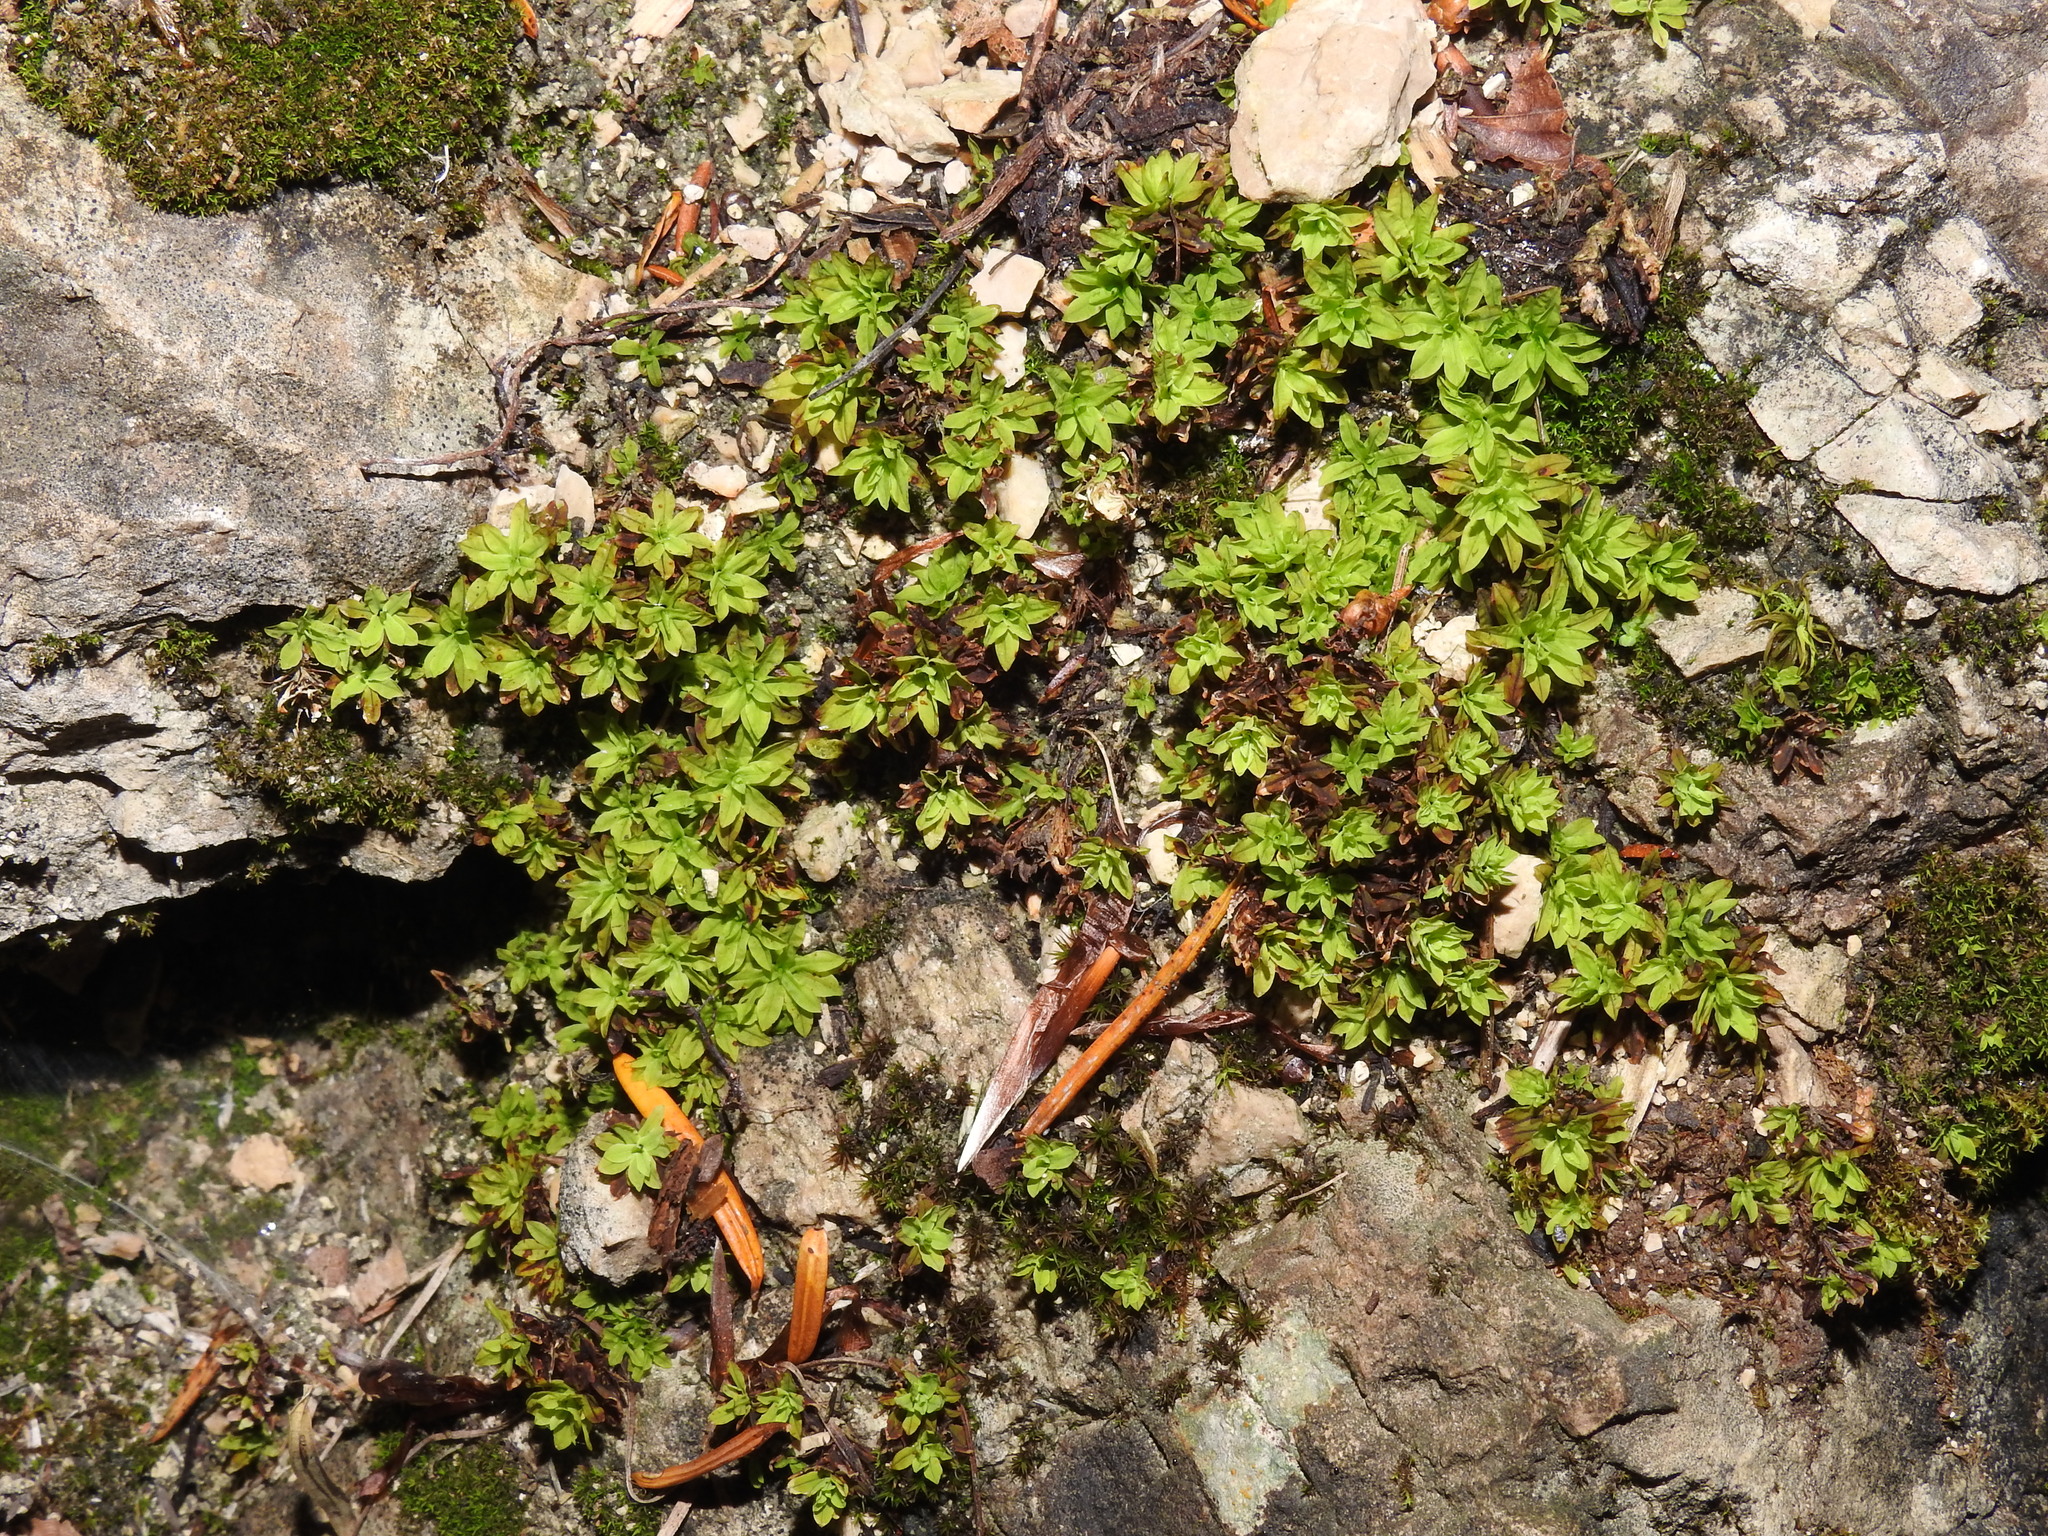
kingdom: Plantae
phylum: Bryophyta
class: Bryopsida
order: Encalyptales
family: Encalyptaceae
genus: Encalypta
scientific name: Encalypta streptocarpa
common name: Spiral extinguisher-moss
